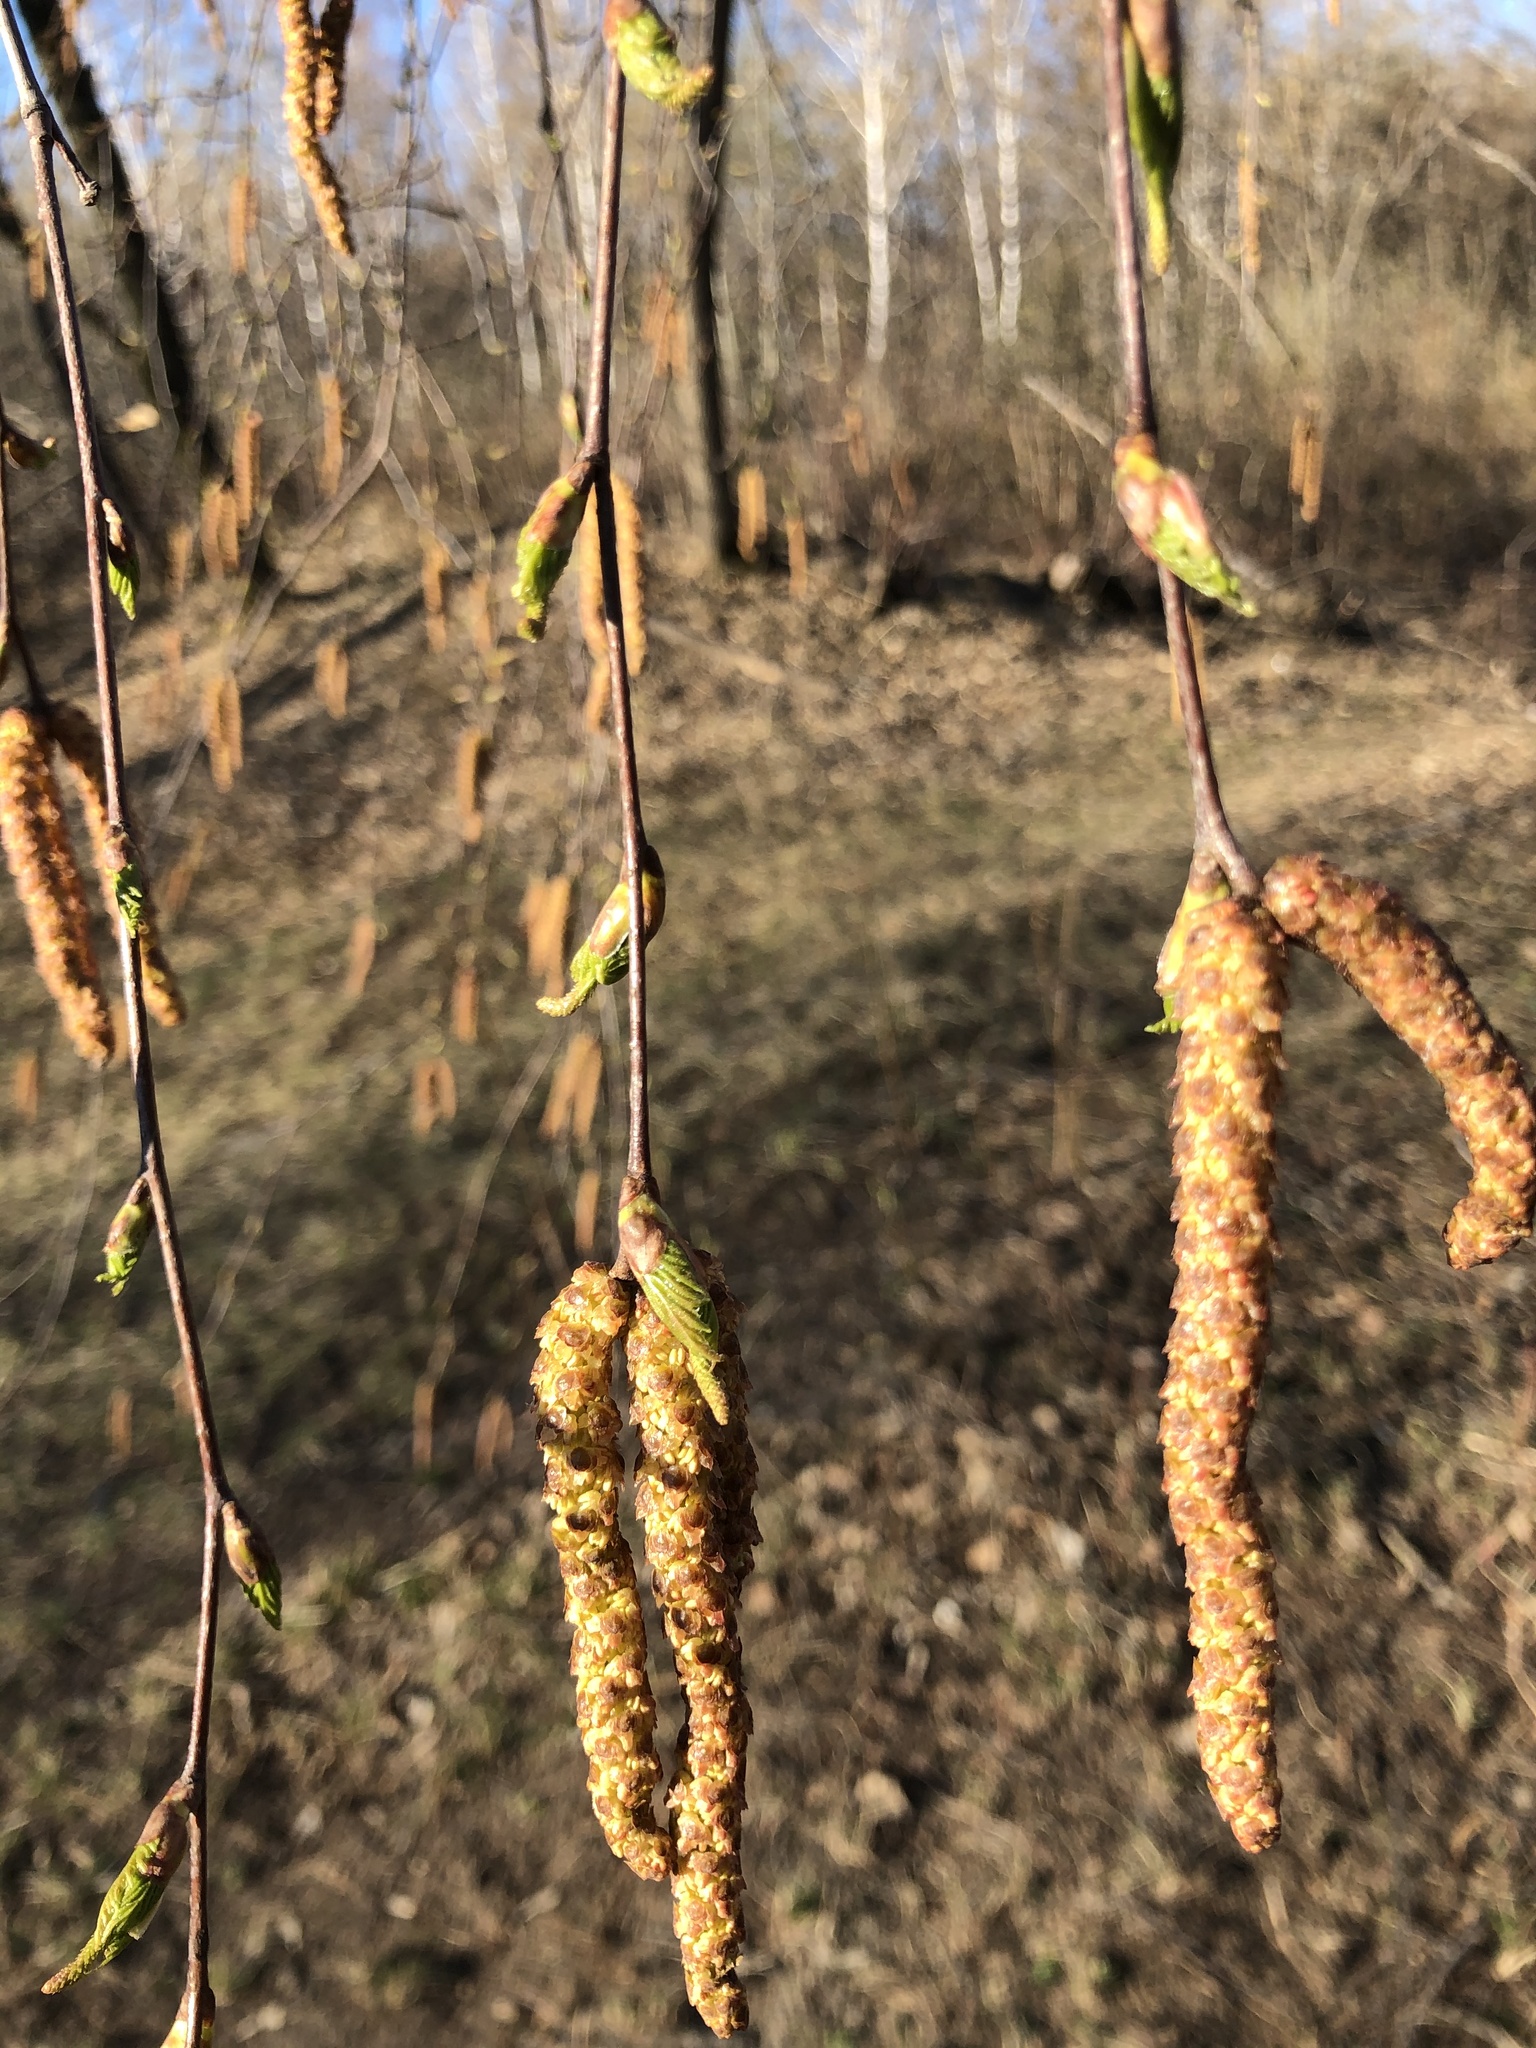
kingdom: Plantae
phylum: Tracheophyta
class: Magnoliopsida
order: Fagales
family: Betulaceae
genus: Betula
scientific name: Betula pendula
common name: Silver birch
